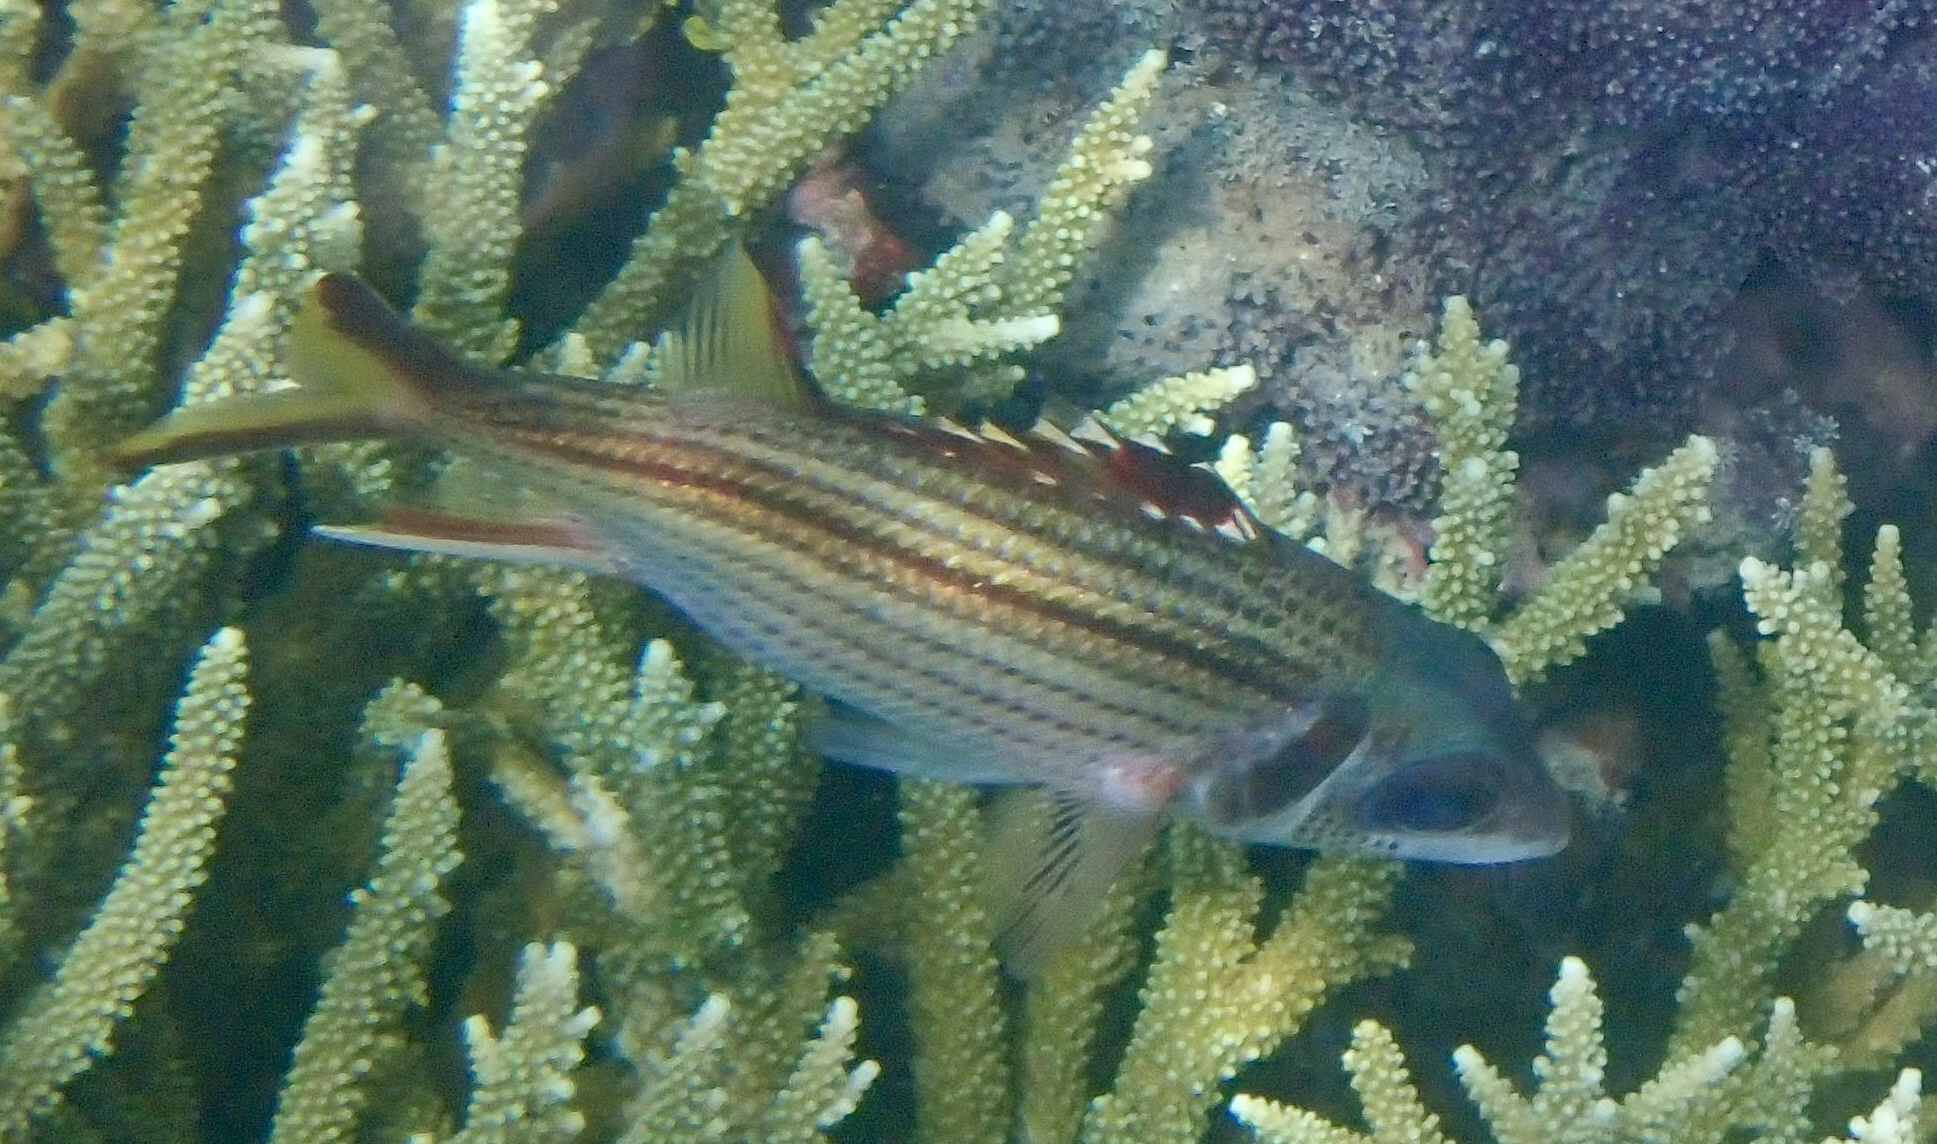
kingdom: Animalia
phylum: Chordata
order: Beryciformes
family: Holocentridae
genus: Neoniphon
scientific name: Neoniphon sammara
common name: Sammara squirrelfish
